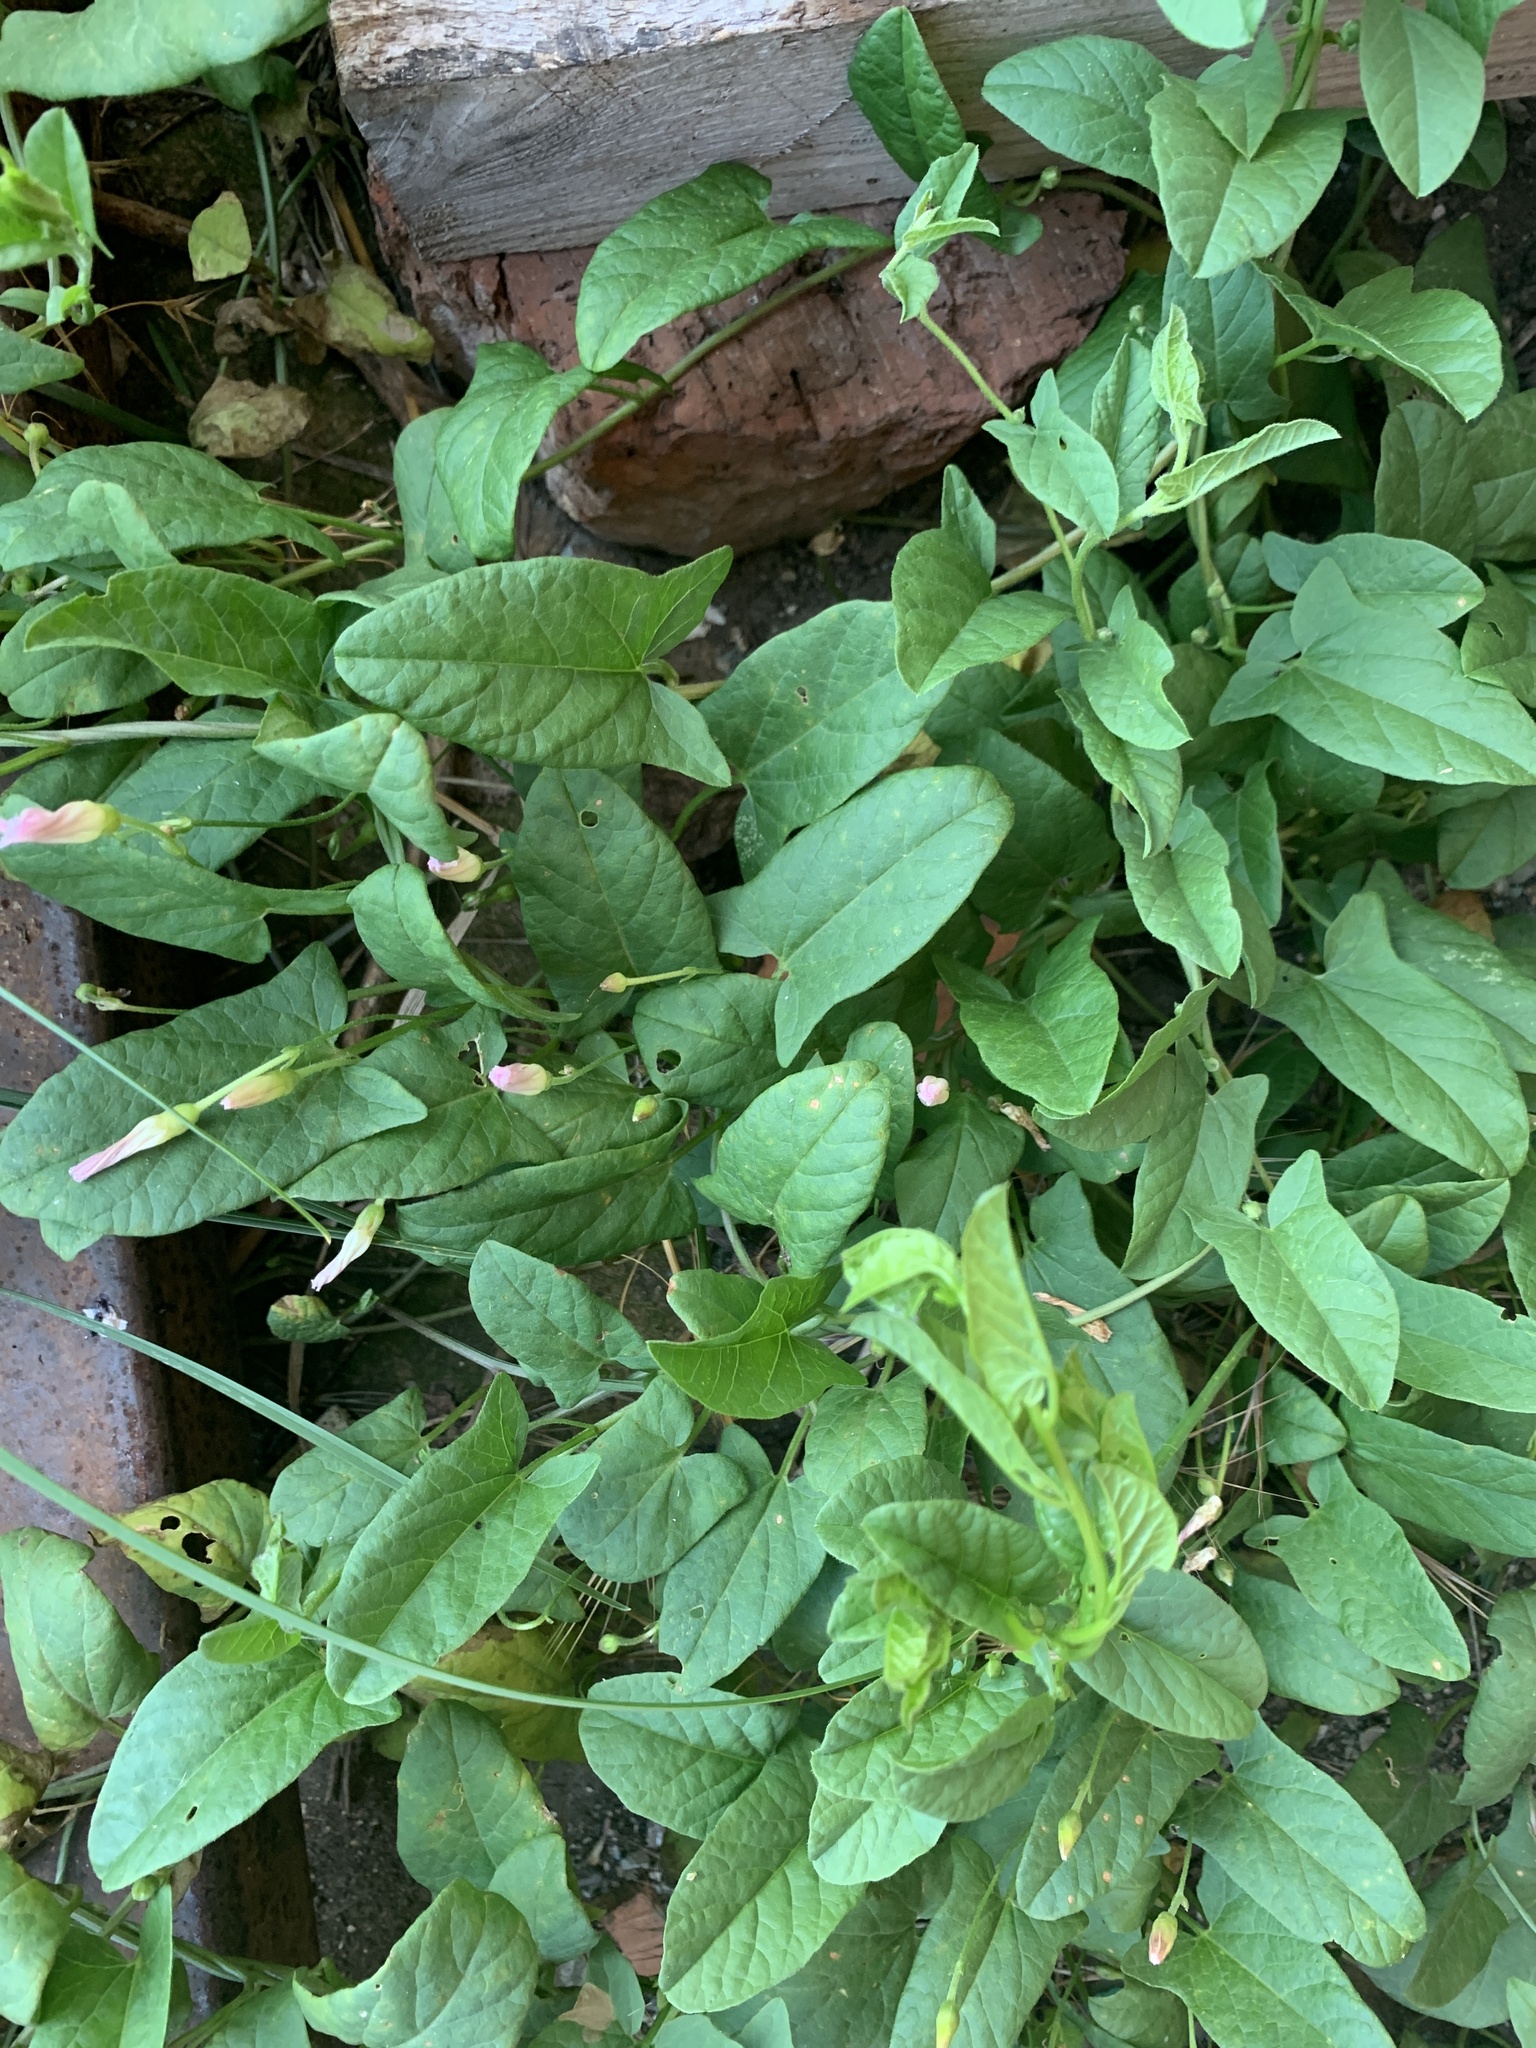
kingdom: Plantae
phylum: Tracheophyta
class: Magnoliopsida
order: Solanales
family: Convolvulaceae
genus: Convolvulus
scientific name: Convolvulus arvensis
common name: Field bindweed
